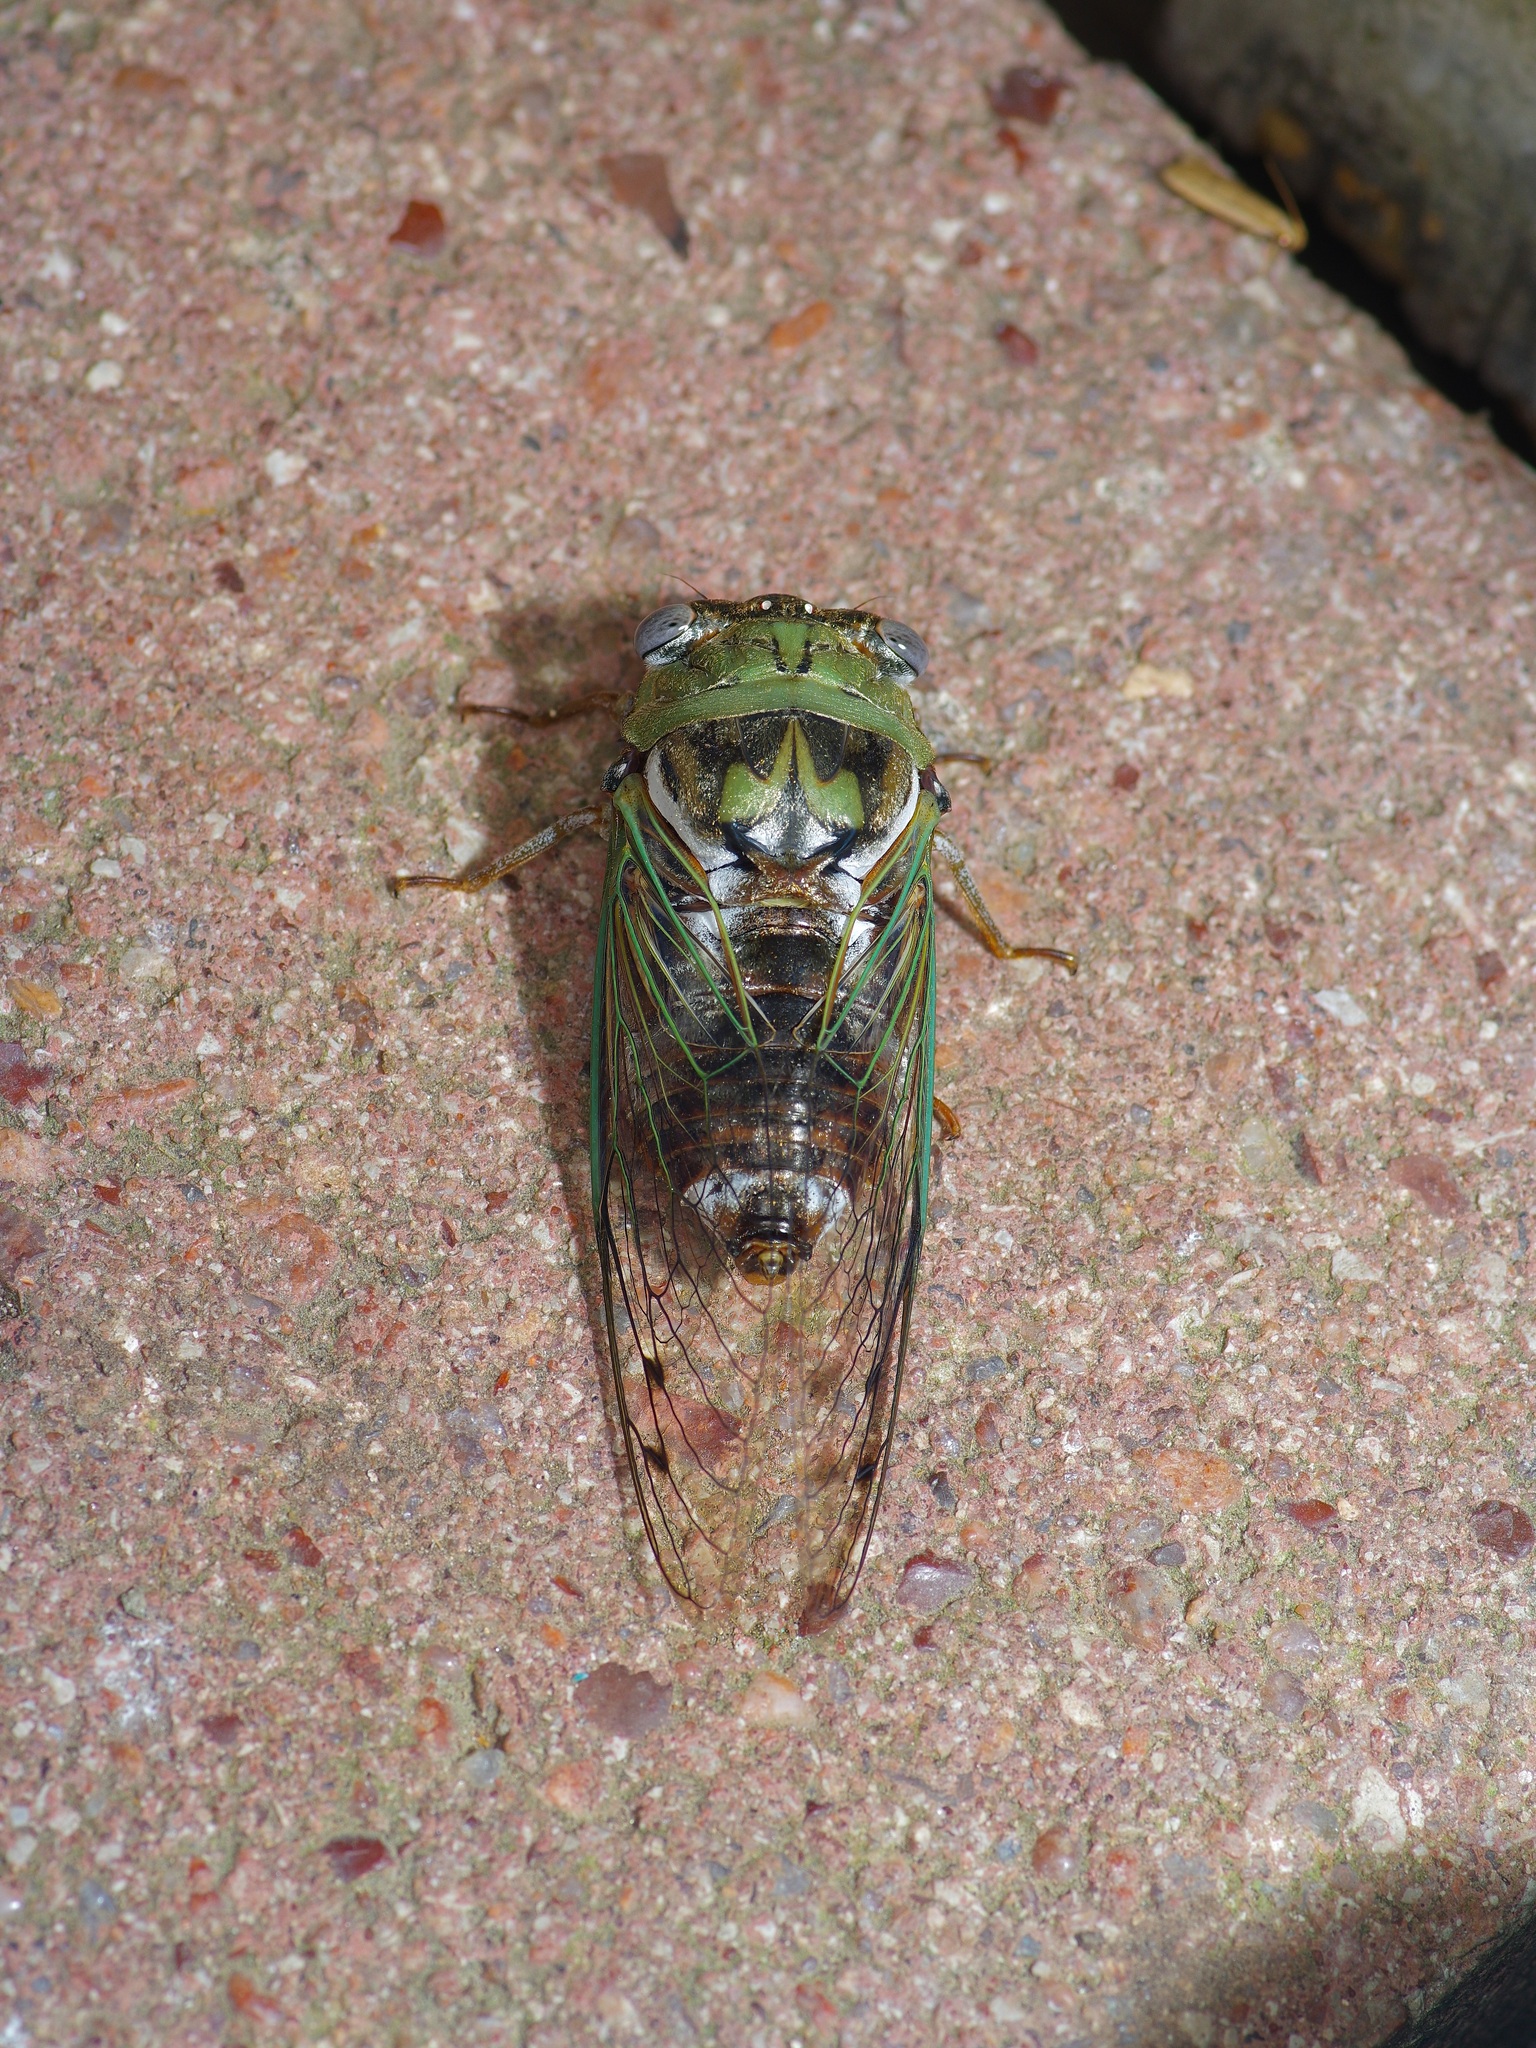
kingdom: Animalia
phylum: Arthropoda
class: Insecta
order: Hemiptera
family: Cicadidae
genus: Megatibicen
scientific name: Megatibicen resh
